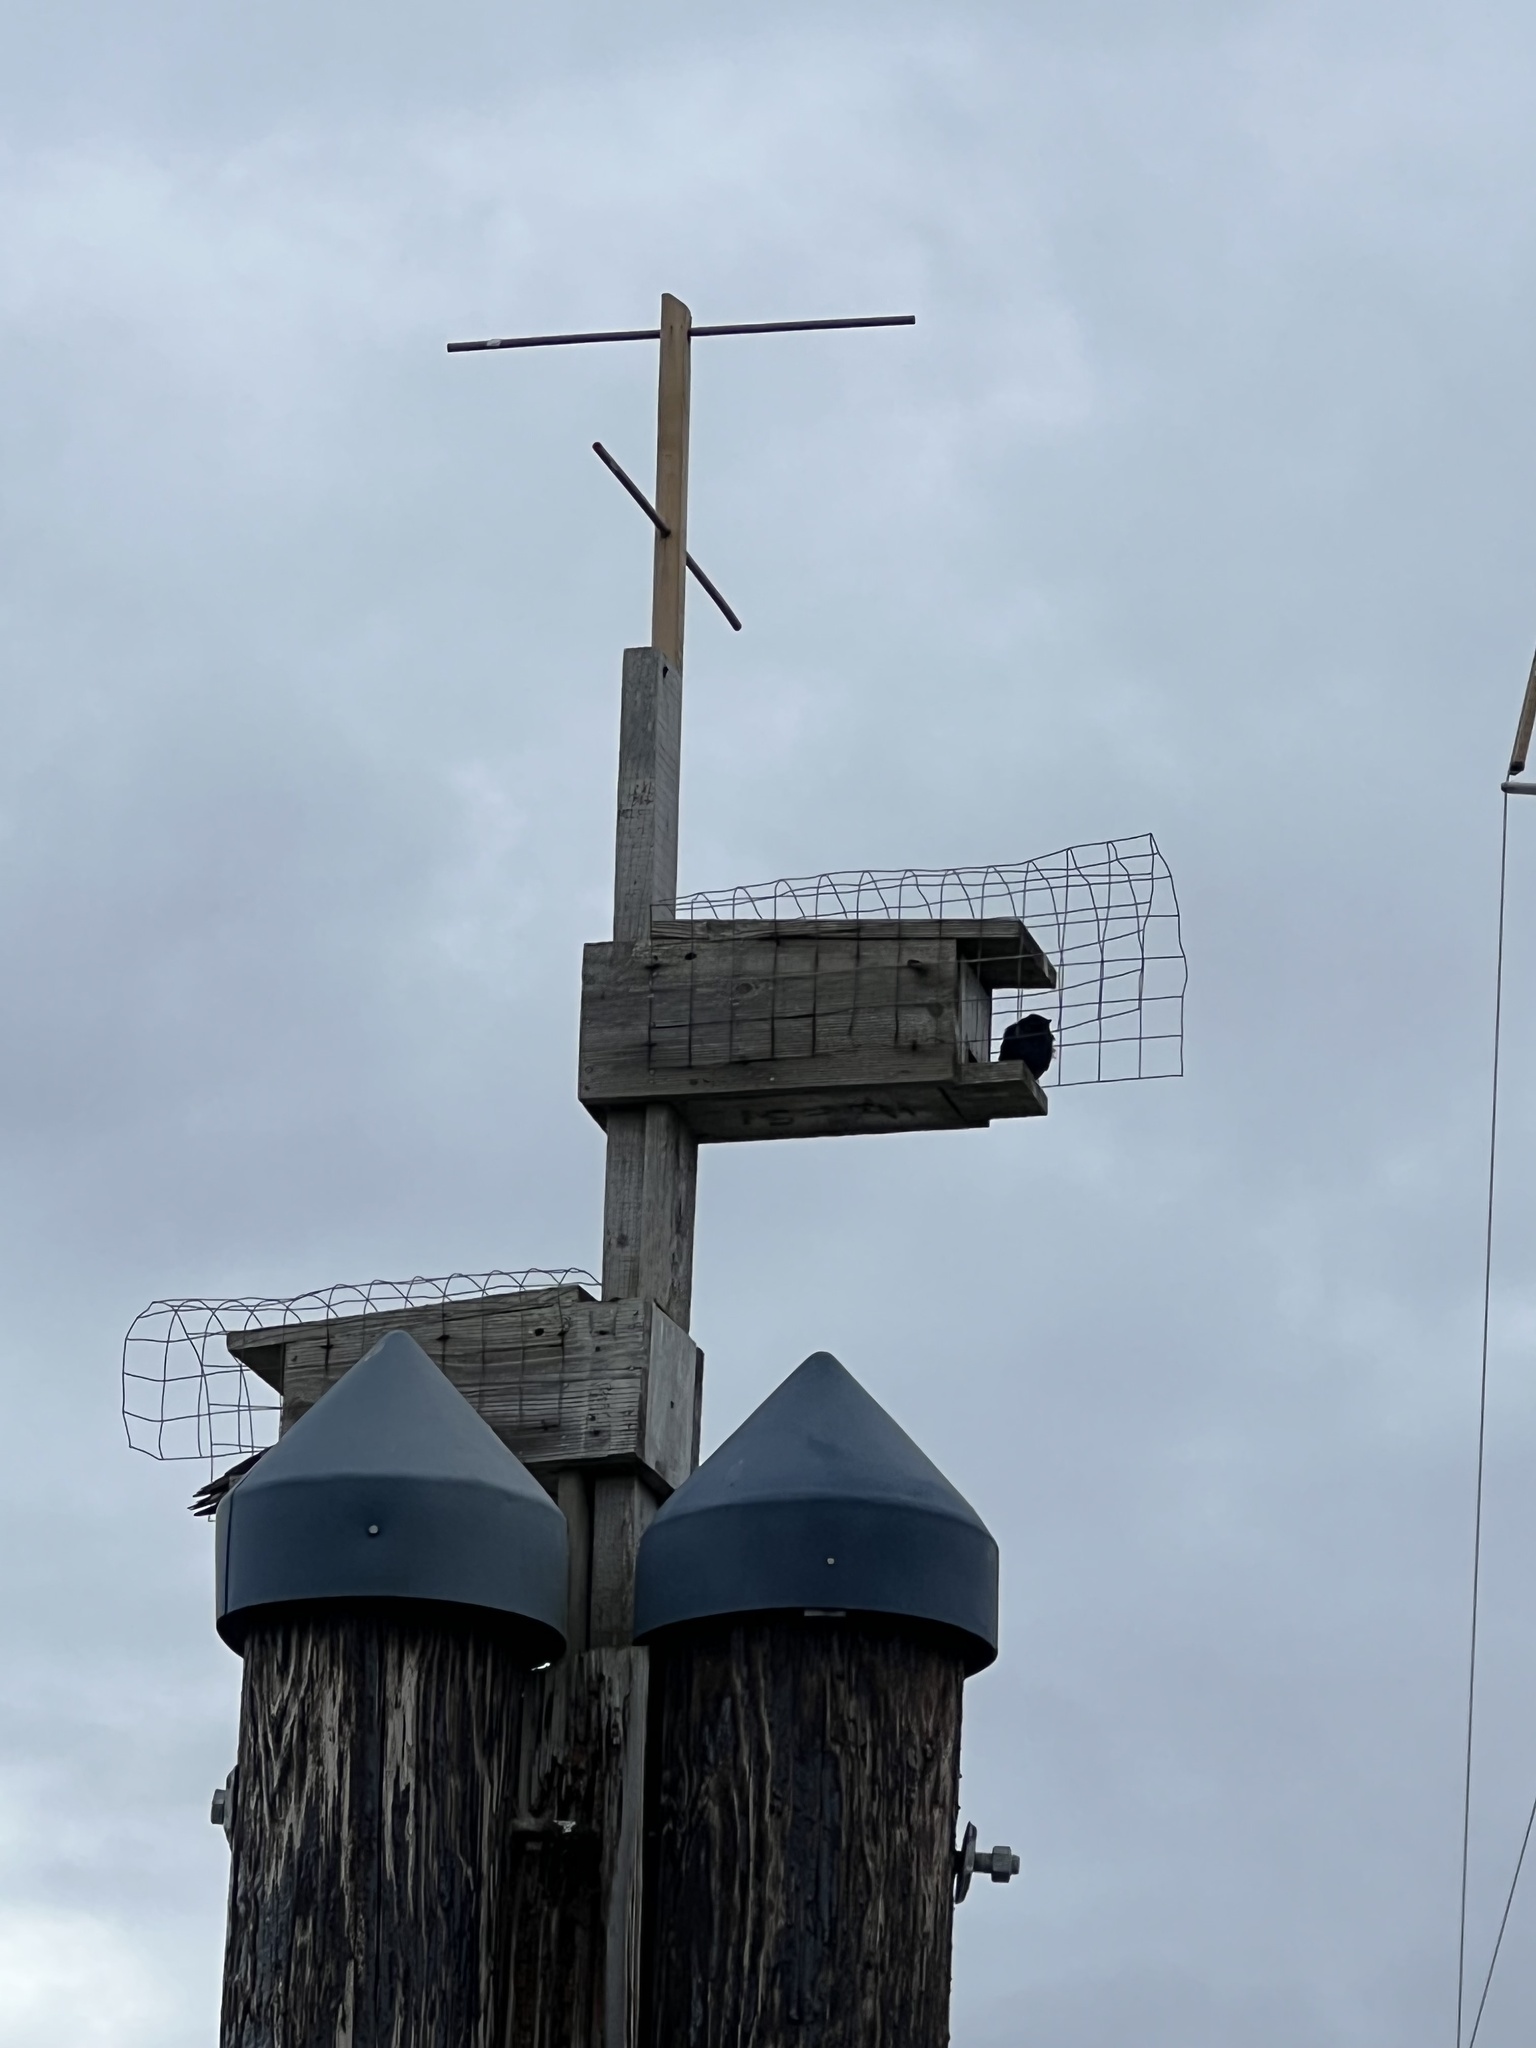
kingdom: Animalia
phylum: Chordata
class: Aves
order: Passeriformes
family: Hirundinidae
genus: Progne
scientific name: Progne subis
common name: Purple martin
